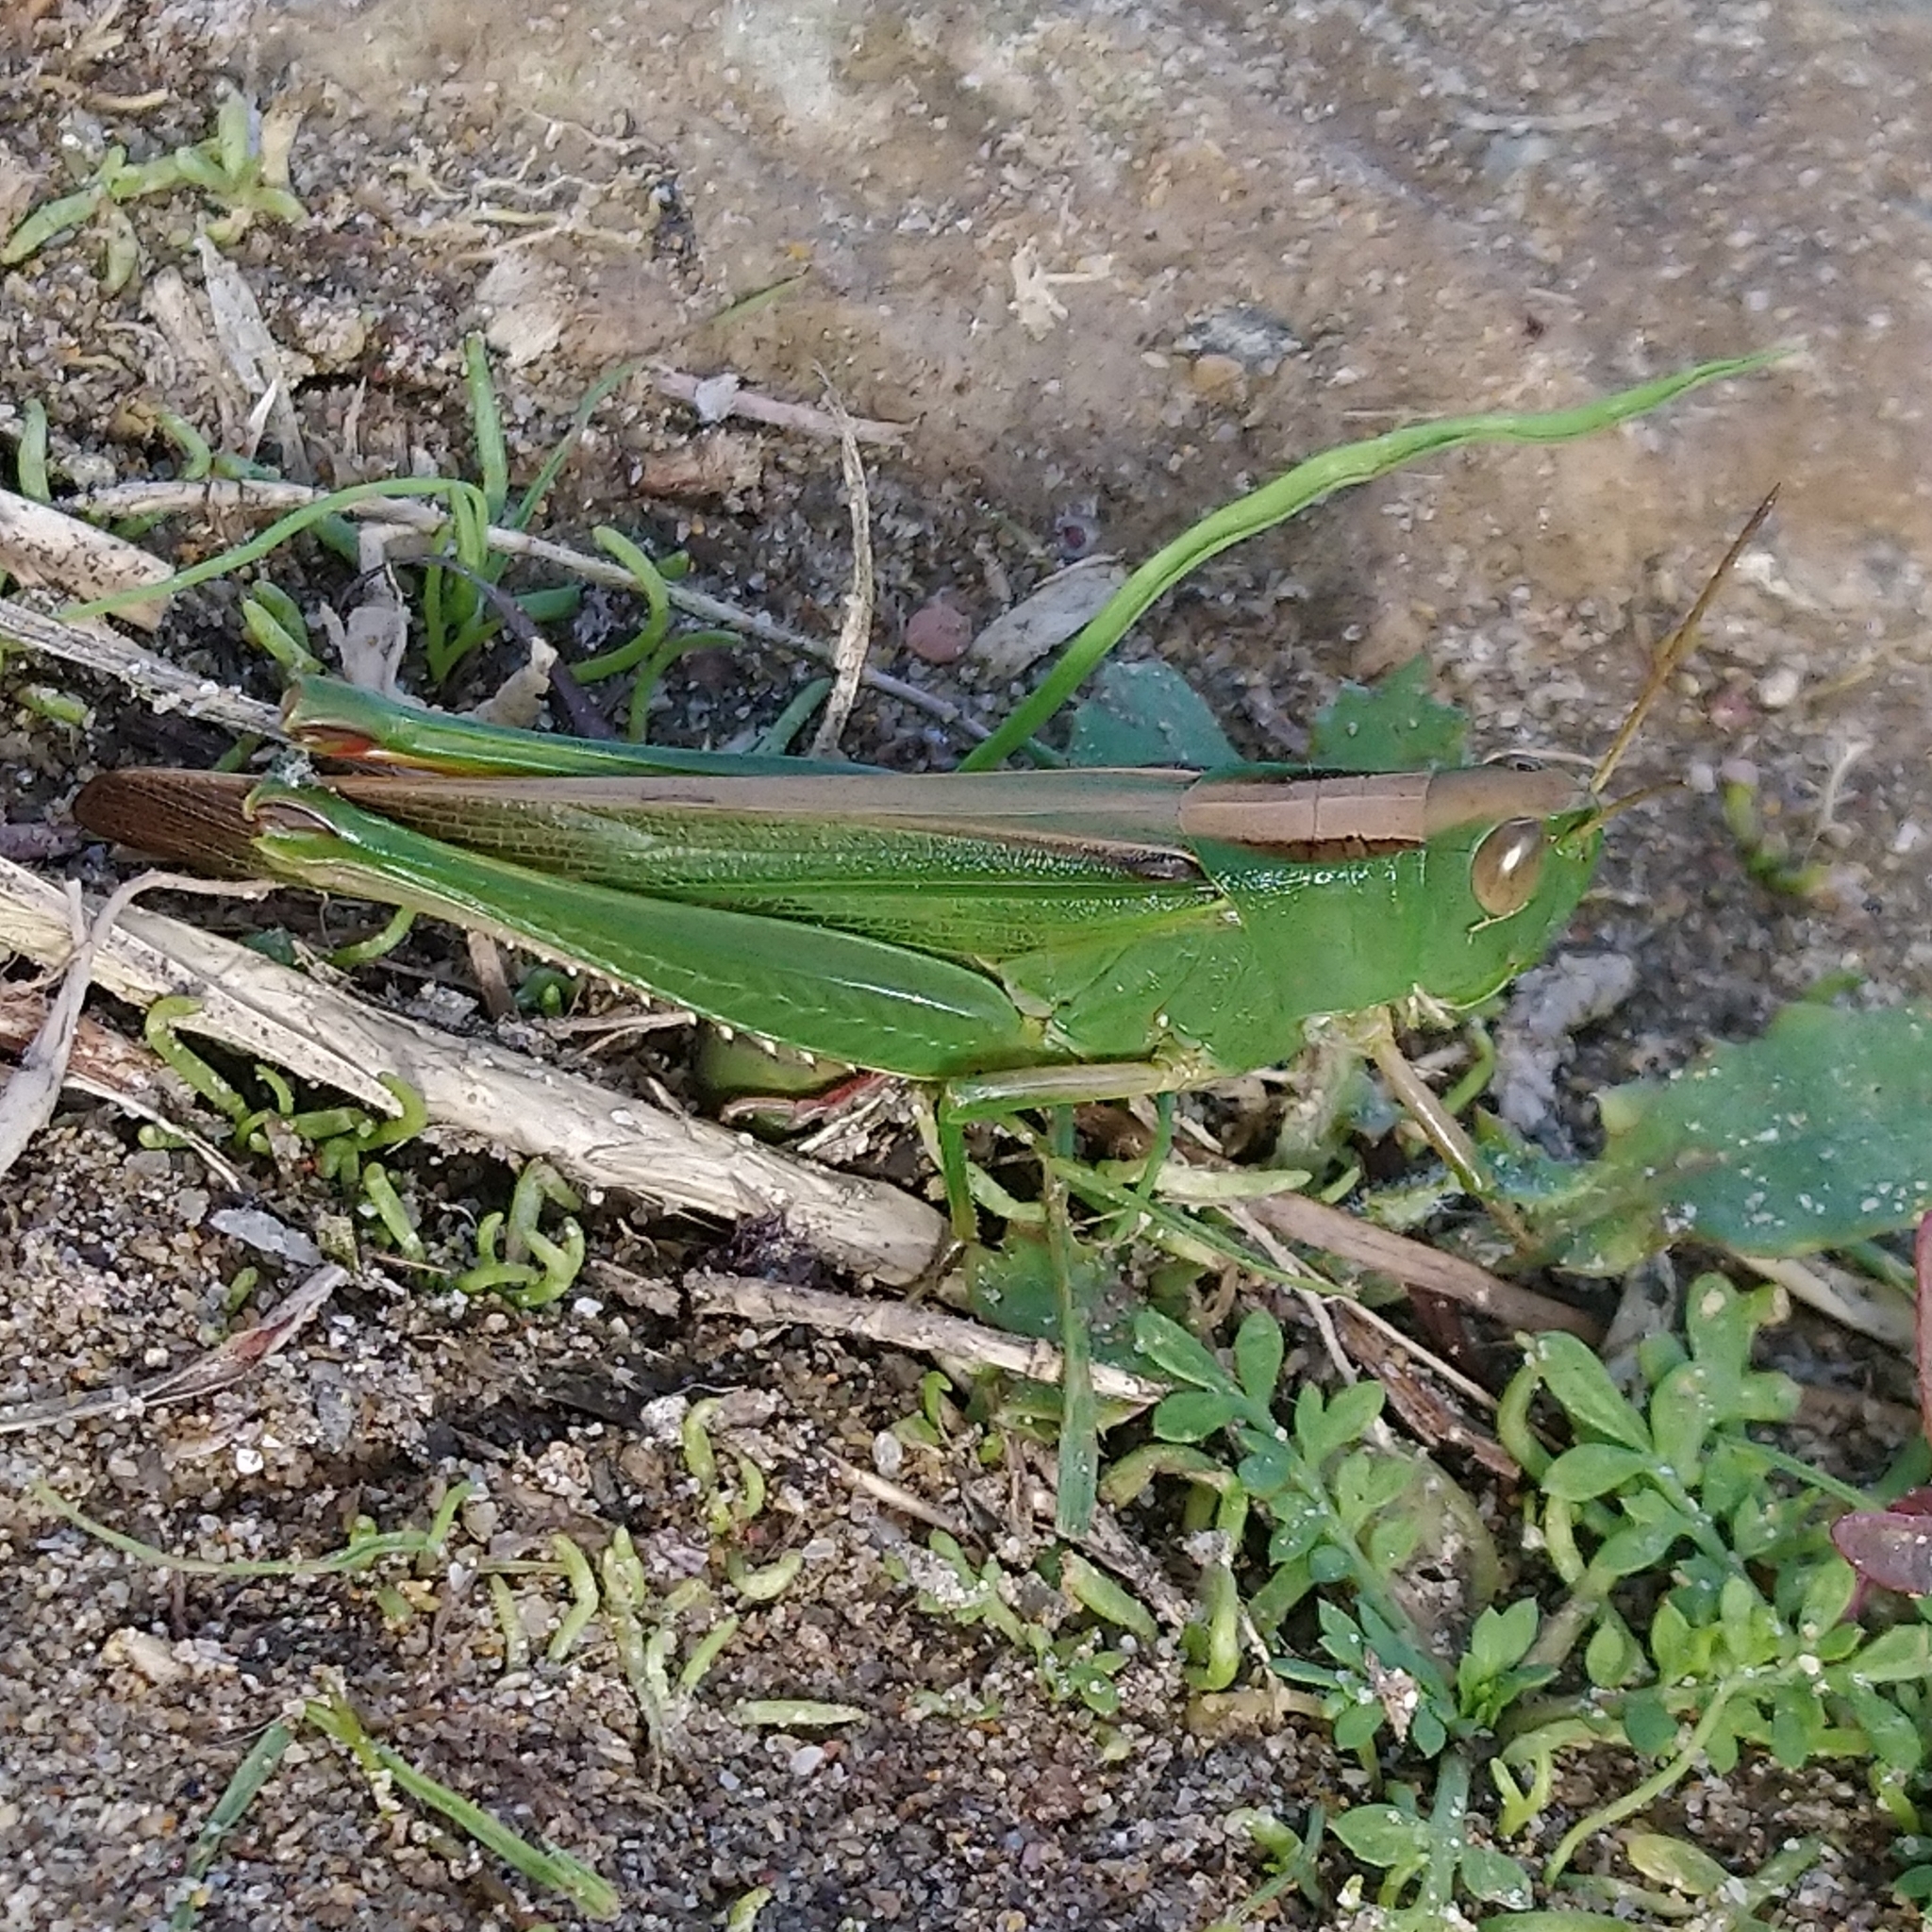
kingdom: Animalia
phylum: Arthropoda
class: Insecta
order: Orthoptera
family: Acrididae
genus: Paracinema
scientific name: Paracinema tricolor
